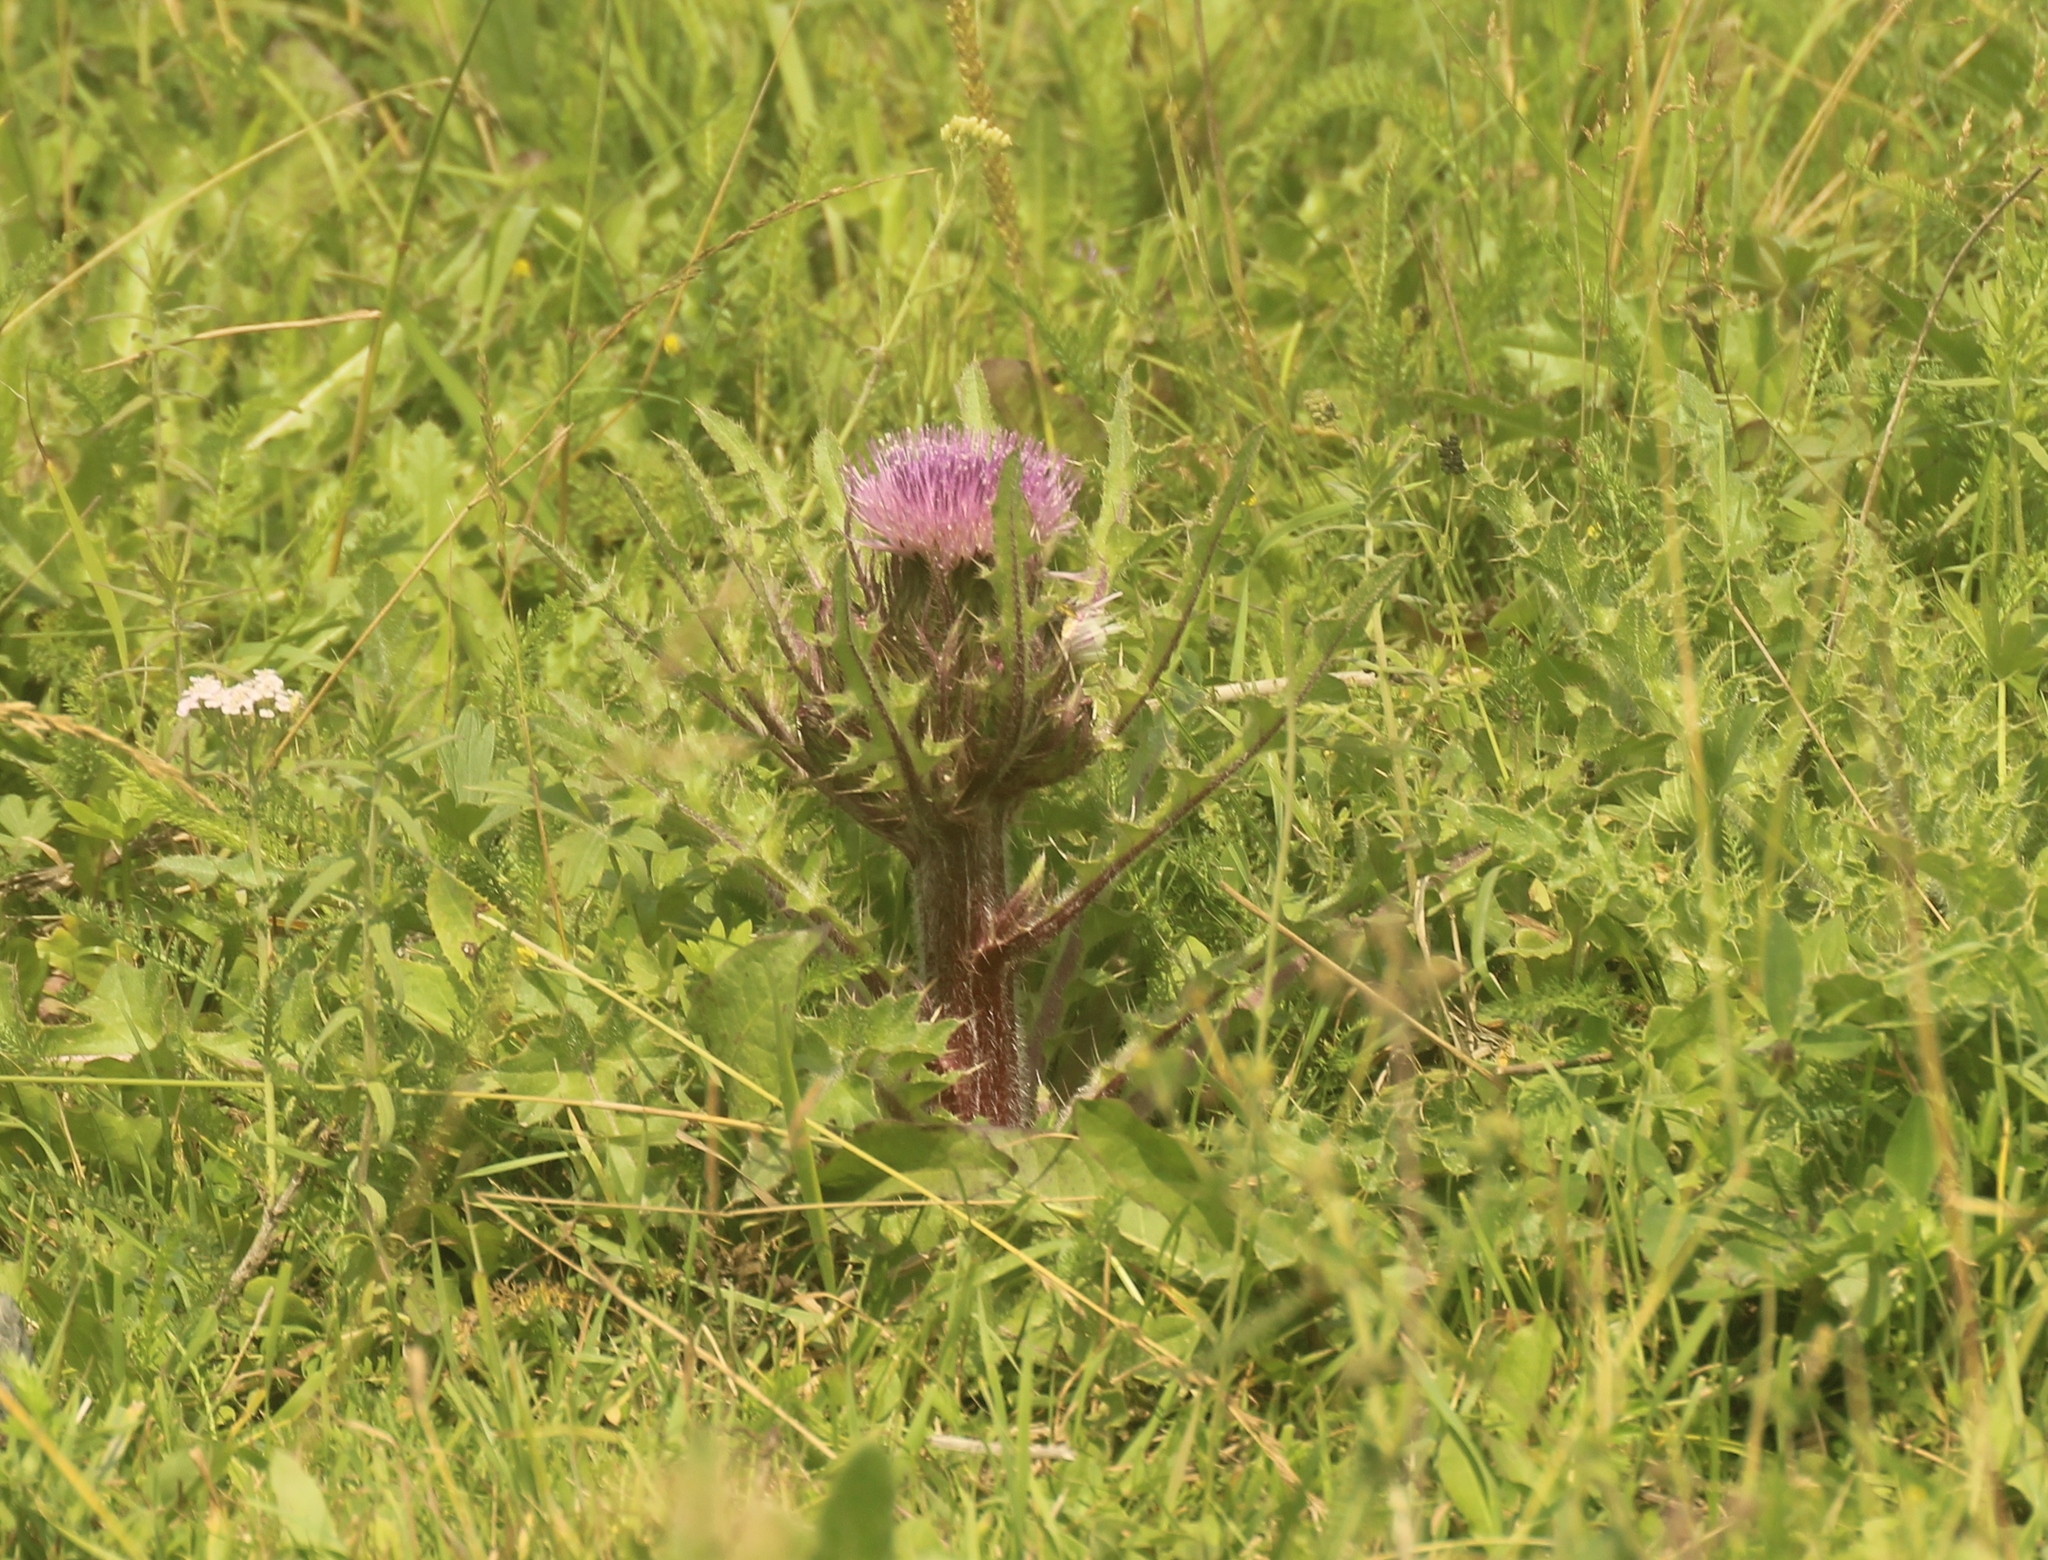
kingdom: Plantae
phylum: Tracheophyta
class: Magnoliopsida
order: Asterales
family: Asteraceae
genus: Cirsium
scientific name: Cirsium esculentum
